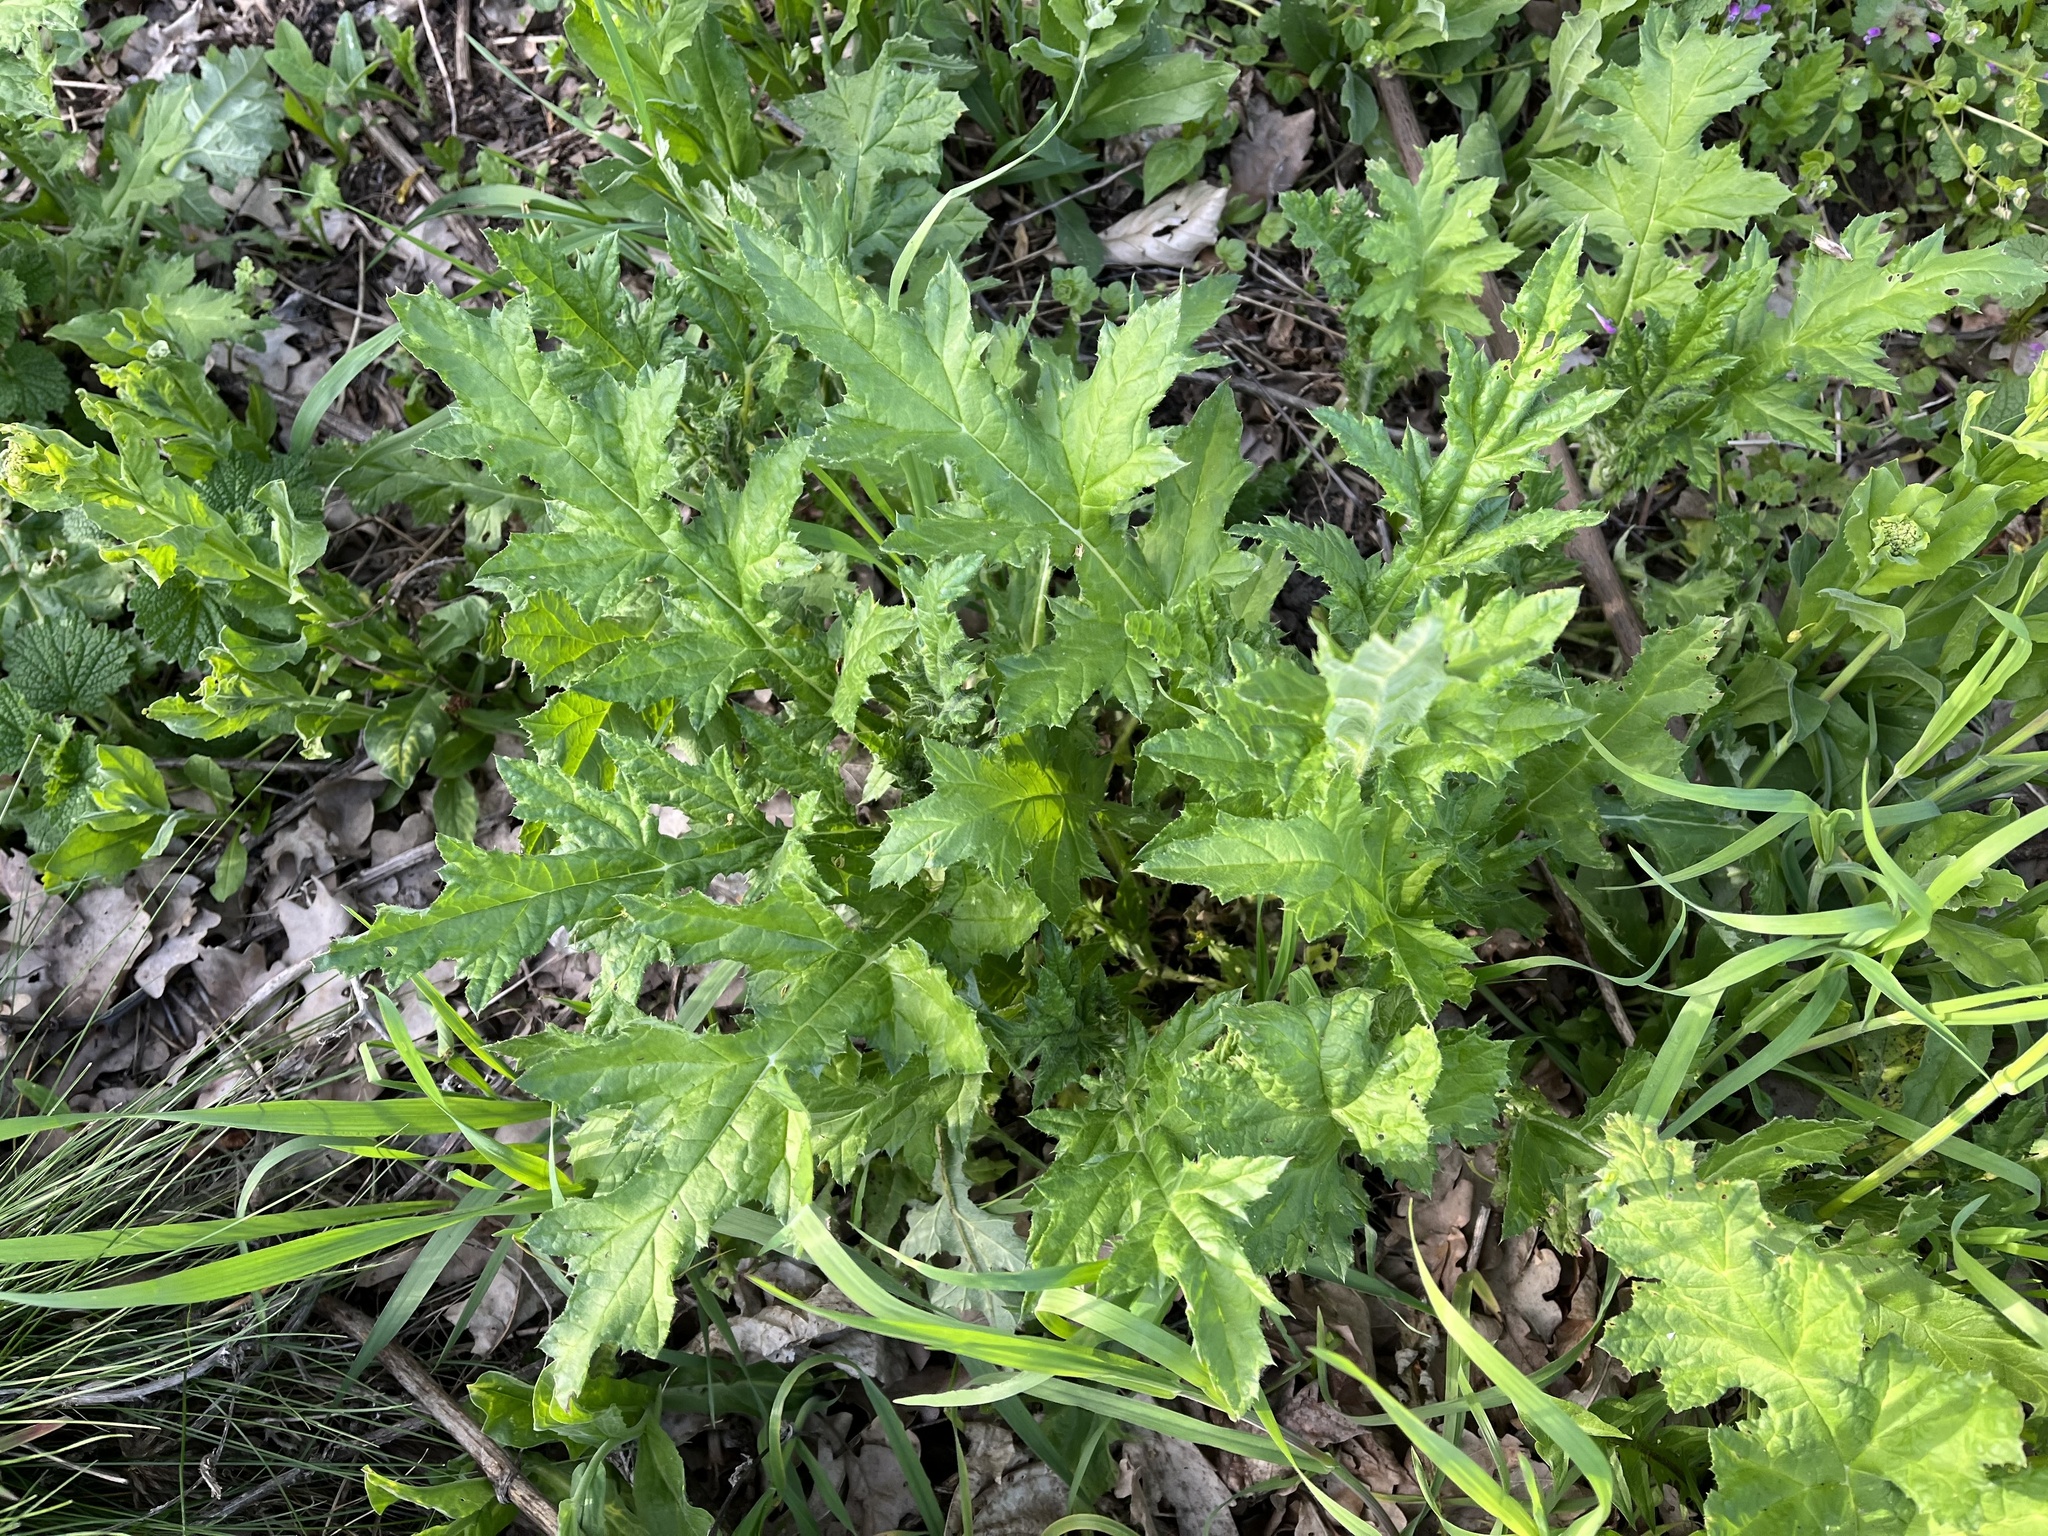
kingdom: Plantae
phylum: Tracheophyta
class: Magnoliopsida
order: Asterales
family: Asteraceae
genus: Echinops
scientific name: Echinops sphaerocephalus
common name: Glandular globe-thistle
